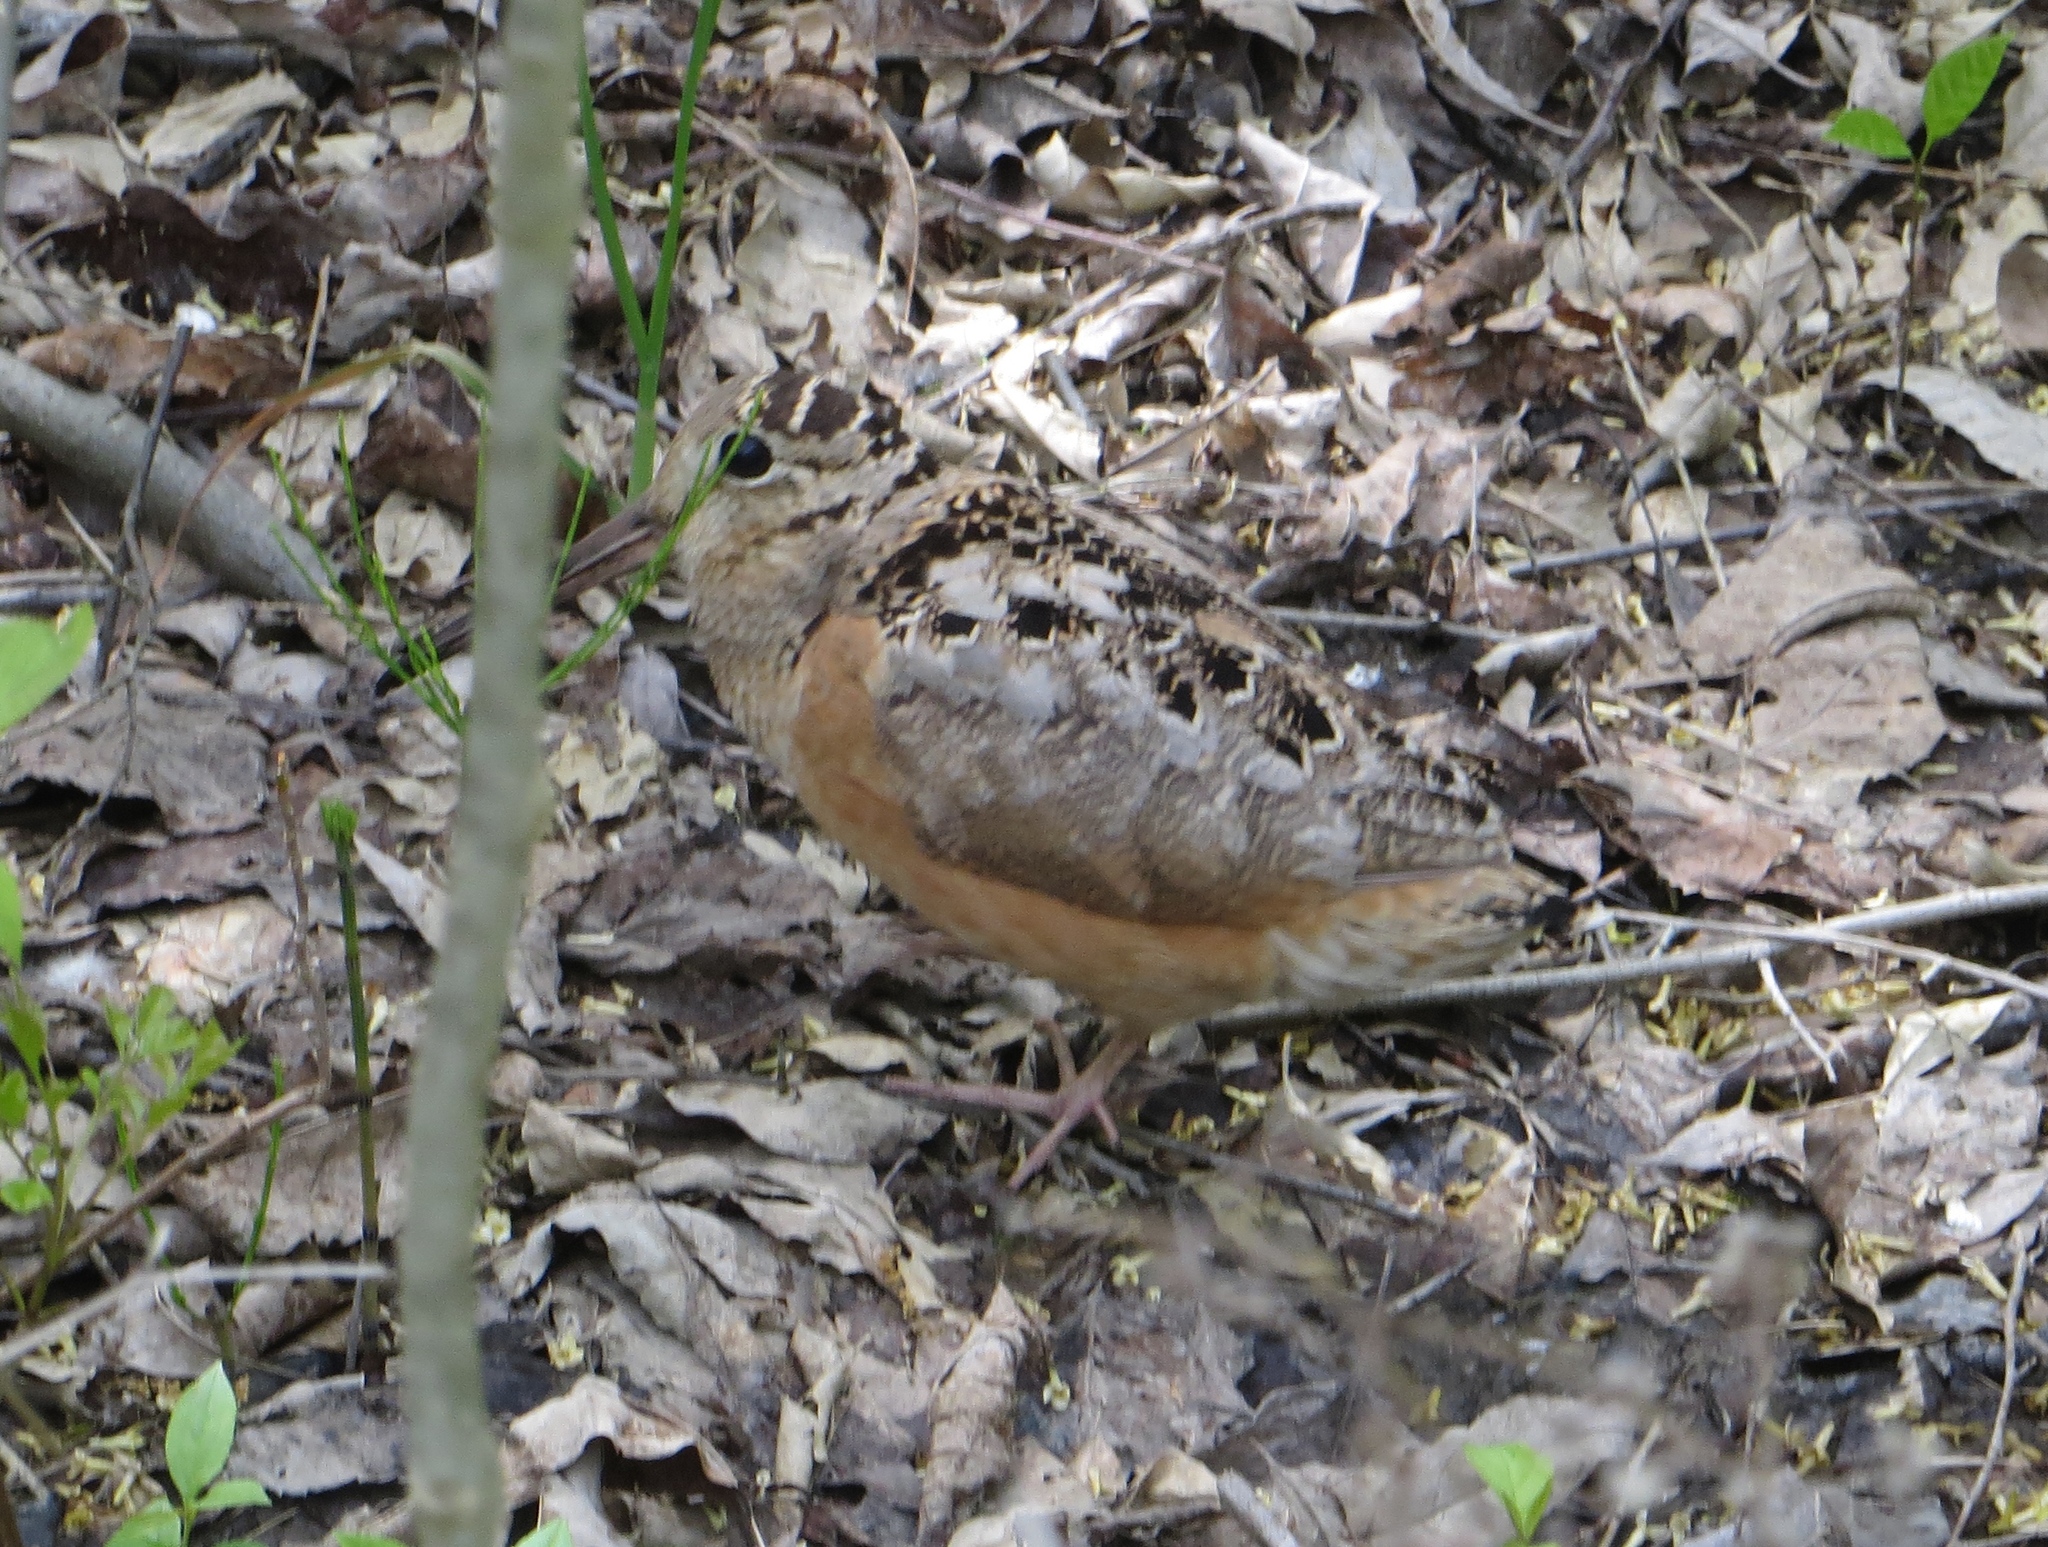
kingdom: Animalia
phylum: Chordata
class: Aves
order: Charadriiformes
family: Scolopacidae
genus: Scolopax
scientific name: Scolopax minor
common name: American woodcock
